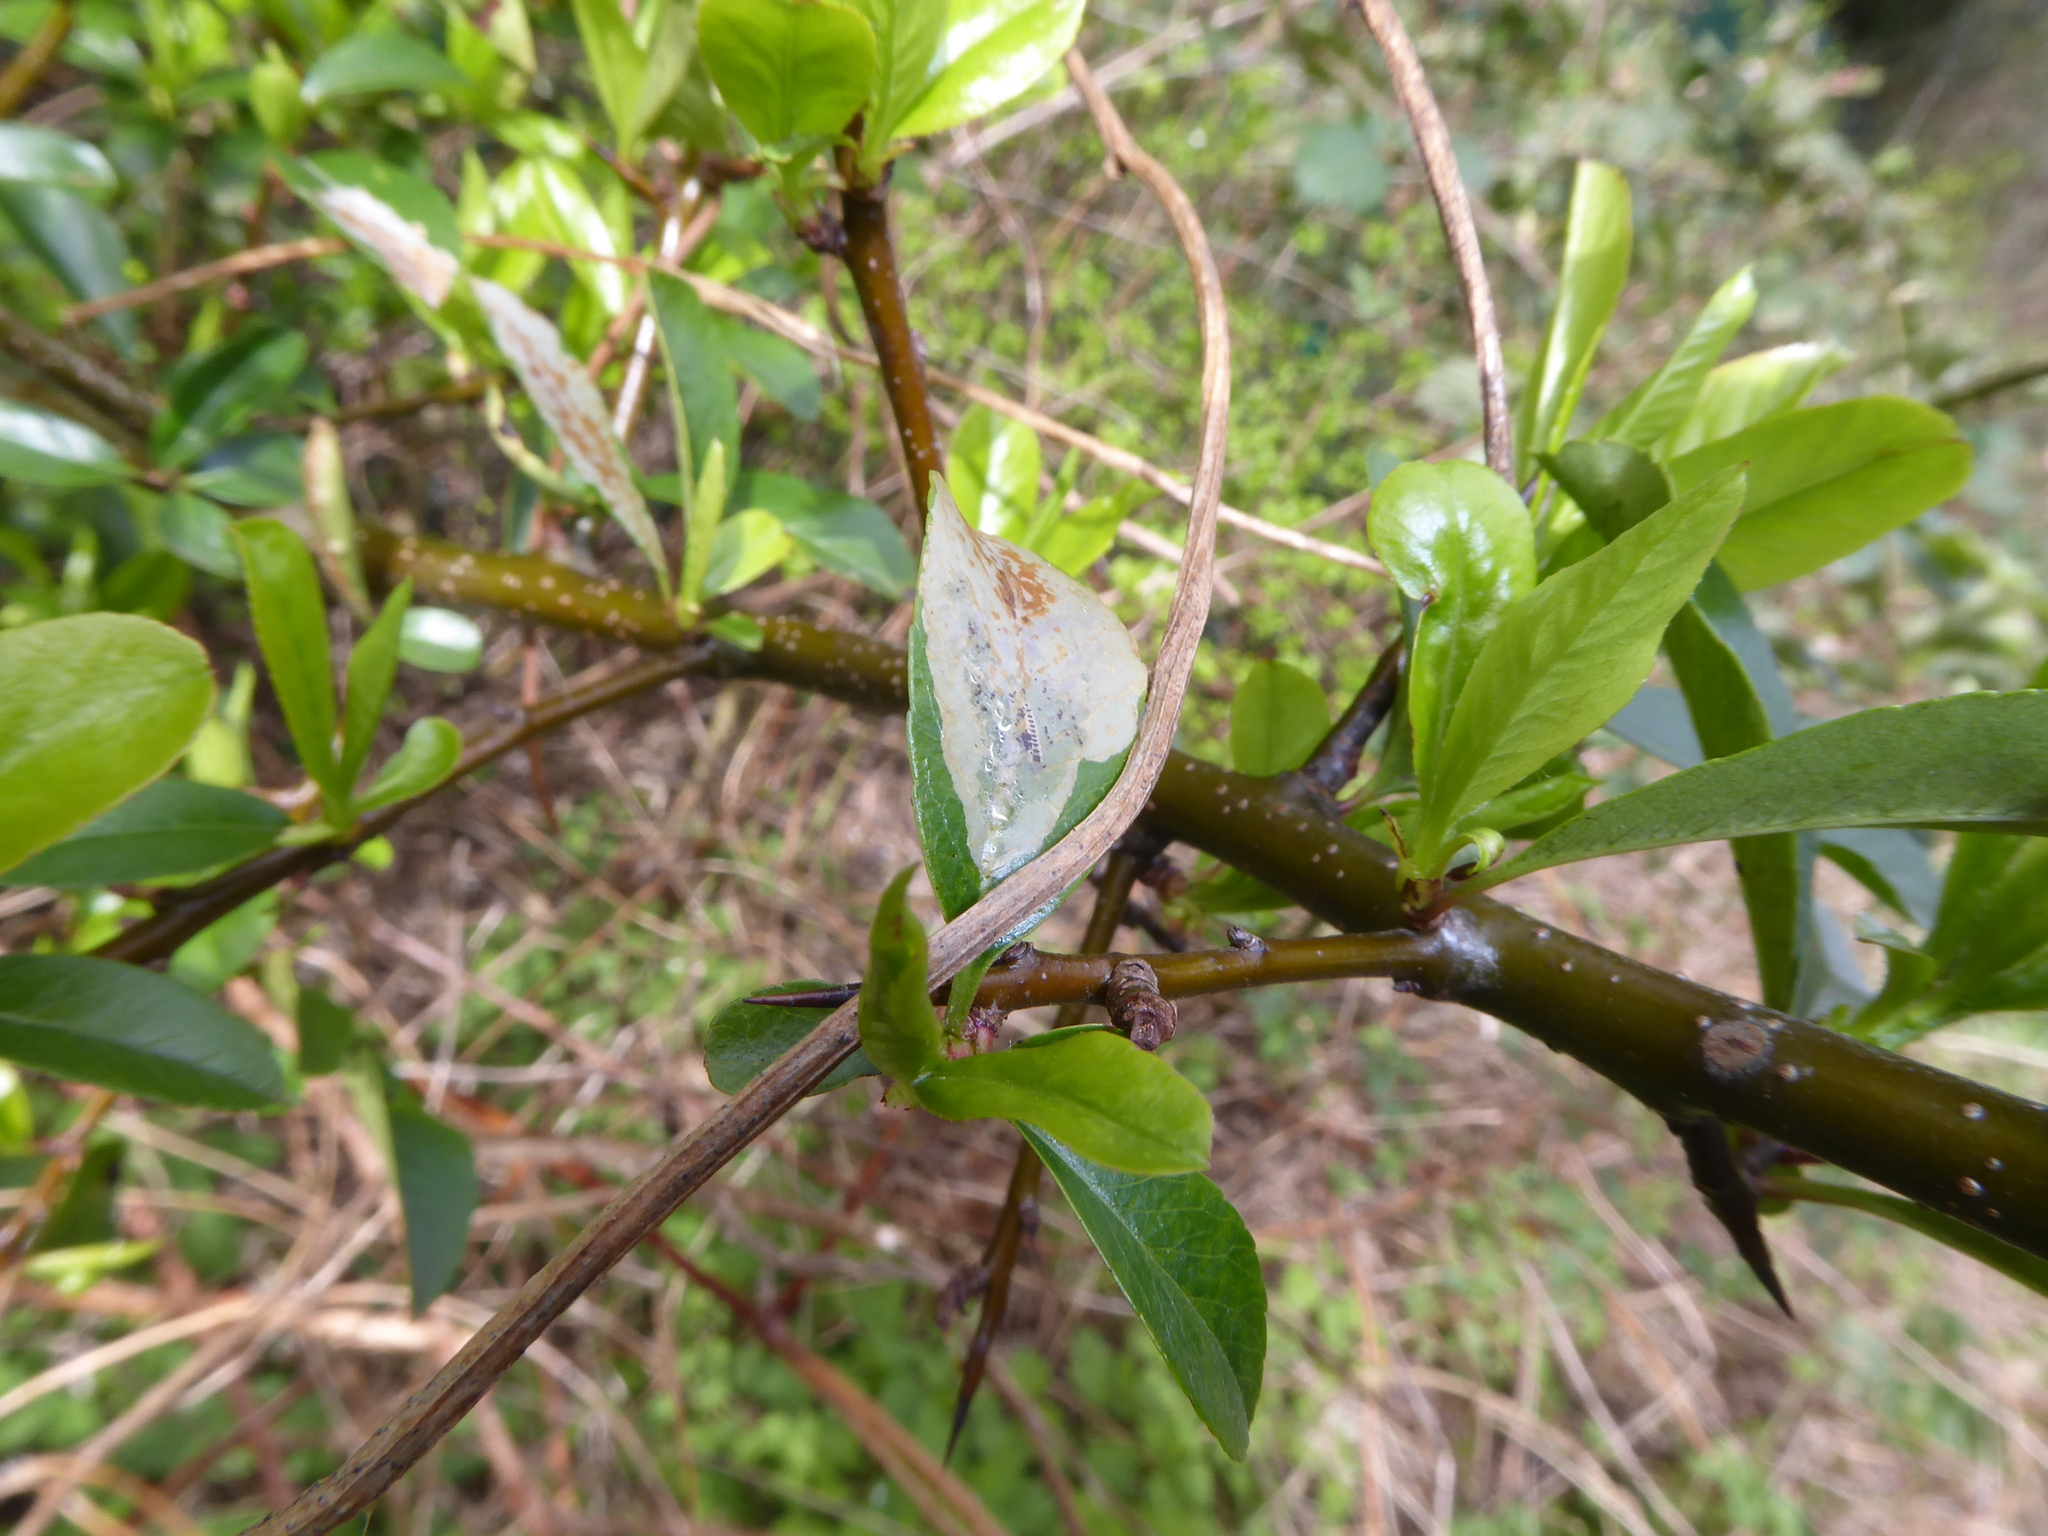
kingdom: Animalia
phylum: Arthropoda
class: Insecta
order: Lepidoptera
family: Gracillariidae
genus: Phyllonorycter
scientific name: Phyllonorycter leucographella
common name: Firethorn leaf-miner
